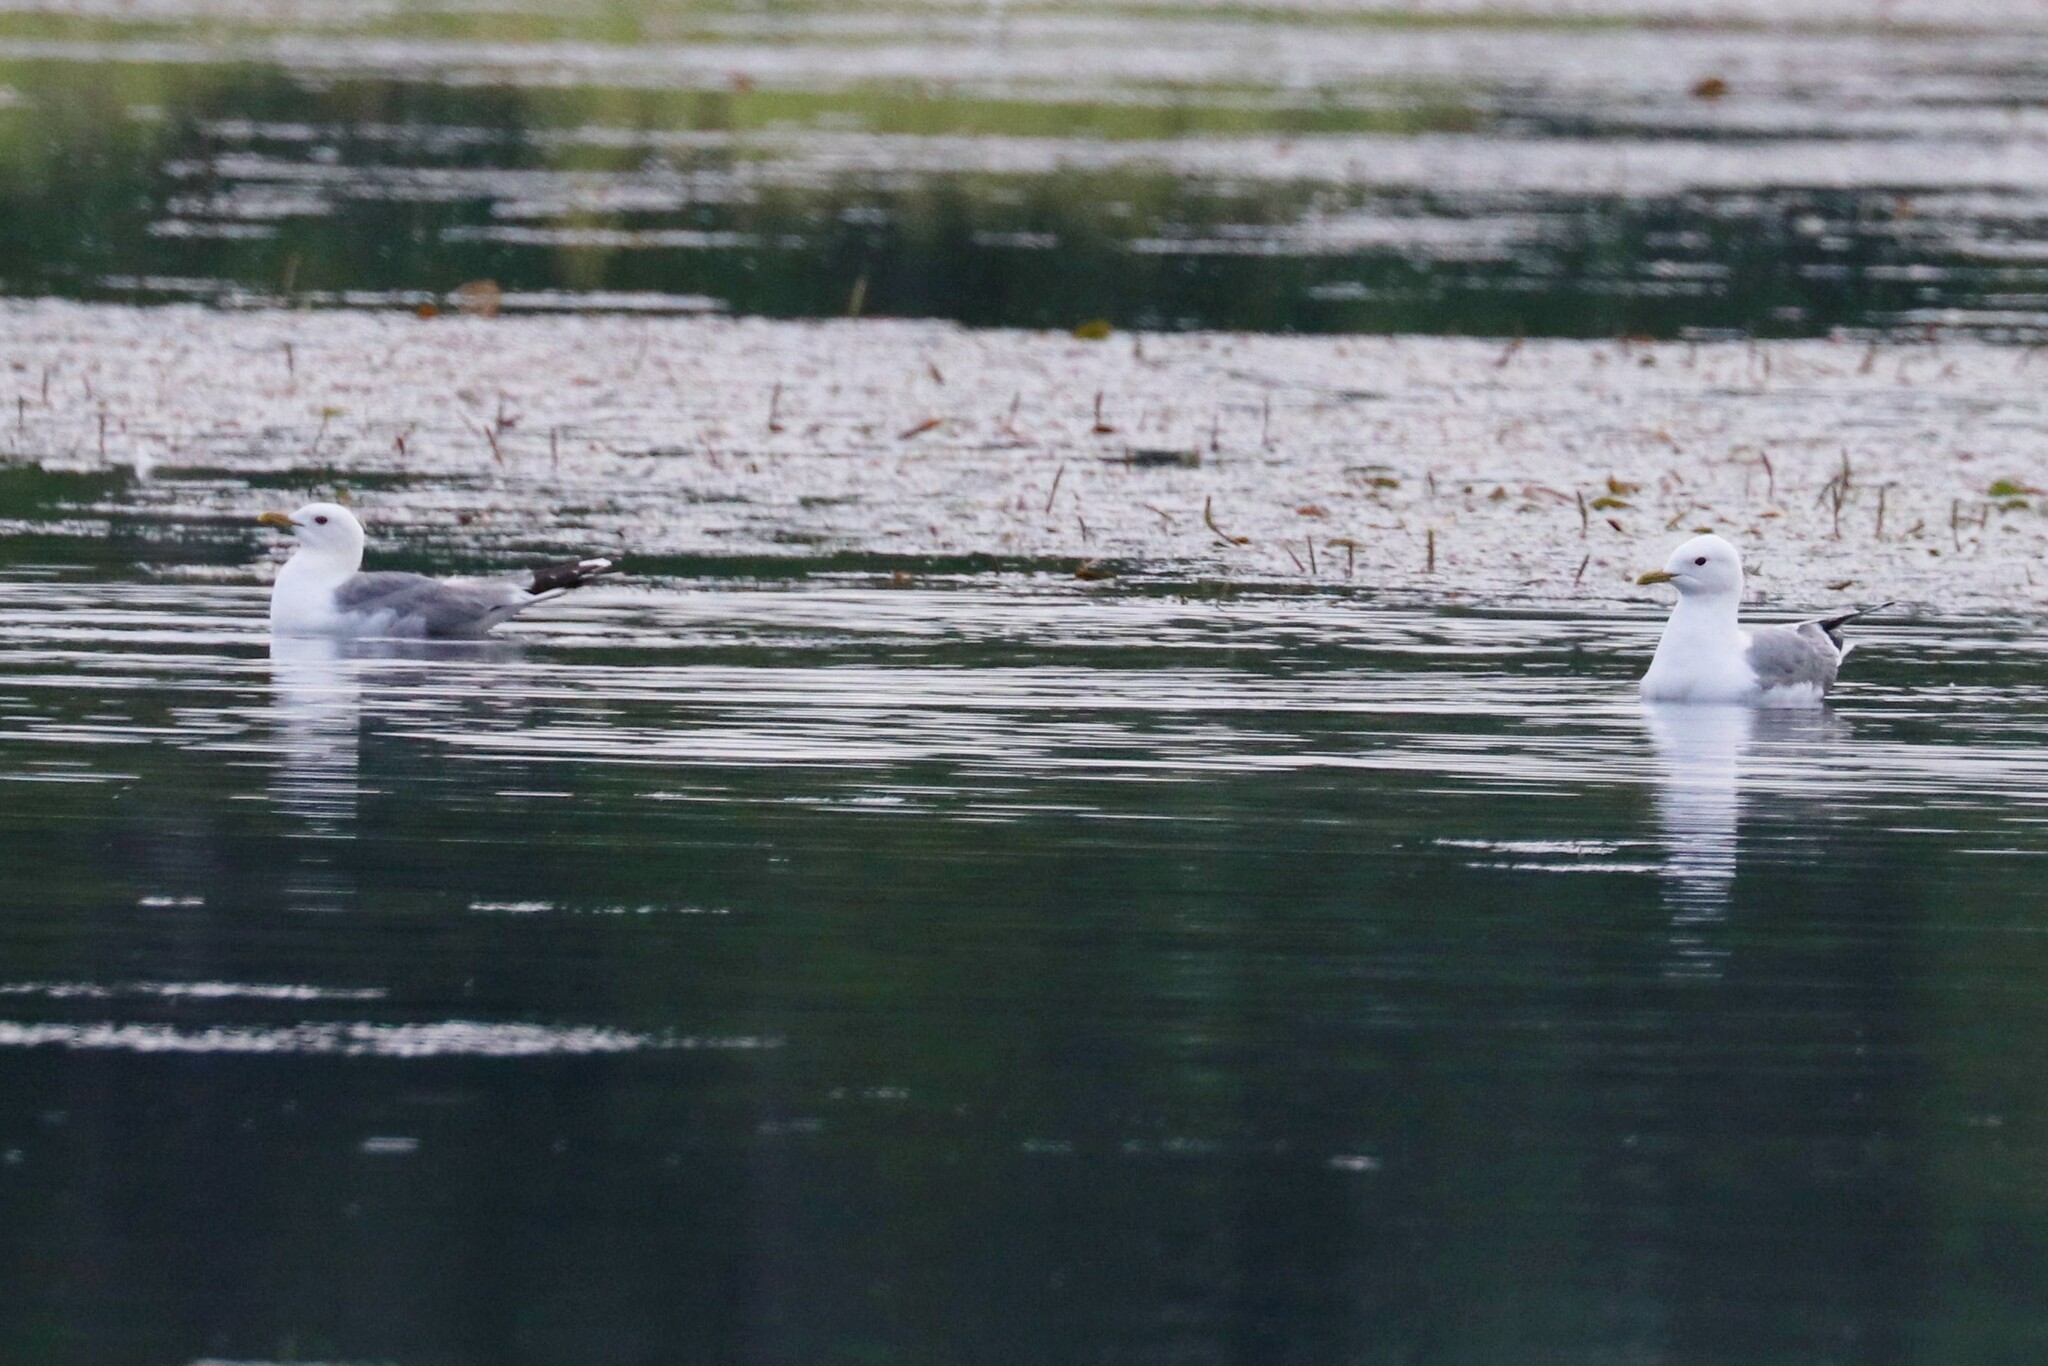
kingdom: Animalia
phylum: Chordata
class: Aves
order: Charadriiformes
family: Laridae
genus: Larus
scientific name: Larus canus
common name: Mew gull
